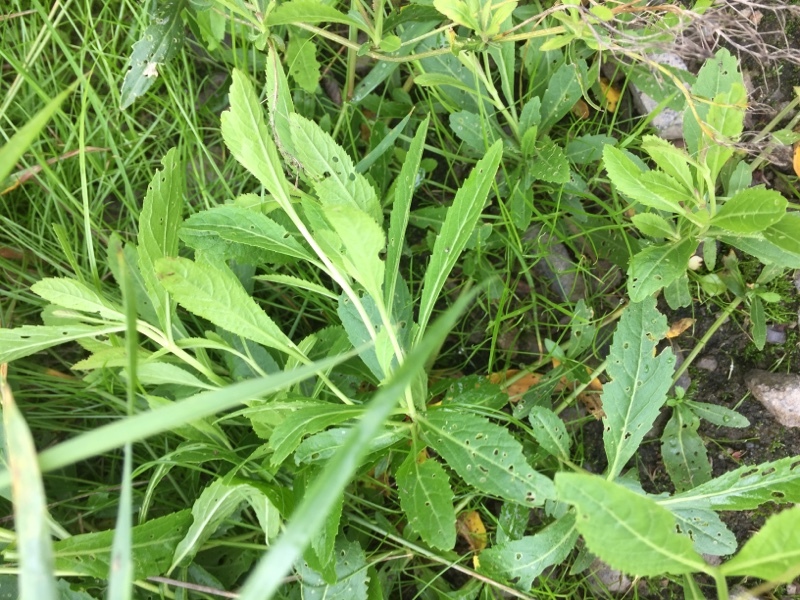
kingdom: Plantae
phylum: Tracheophyta
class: Magnoliopsida
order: Brassicales
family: Brassicaceae
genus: Rorippa
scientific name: Rorippa austriaca
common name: Austrian yellow-cress
